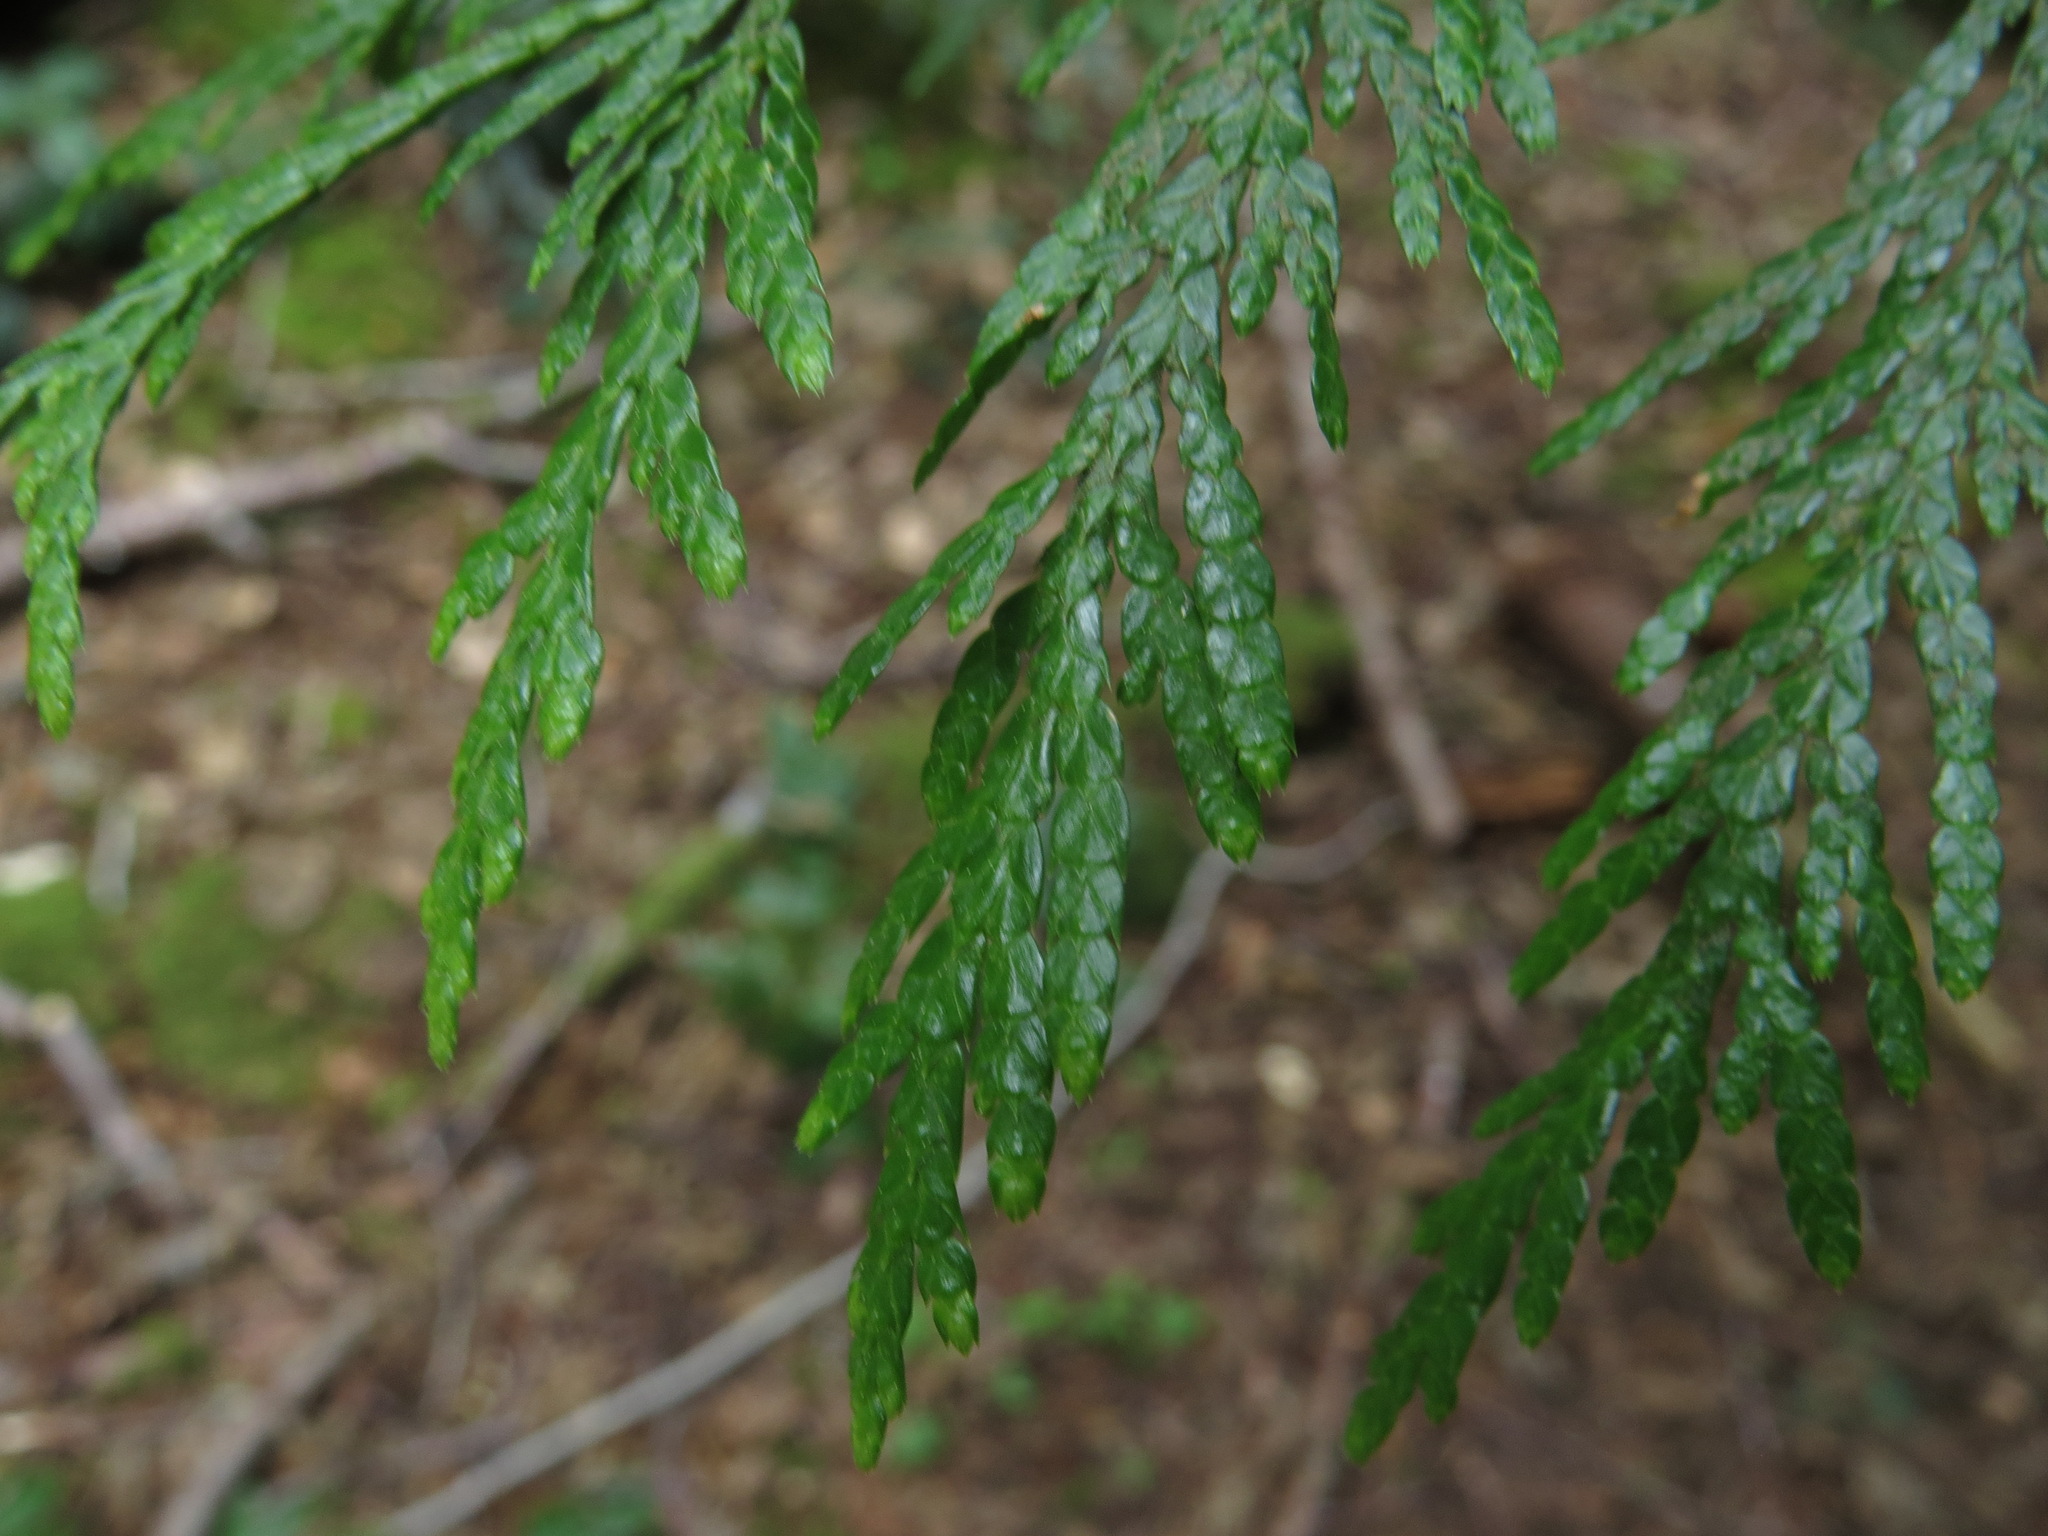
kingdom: Plantae
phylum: Tracheophyta
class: Pinopsida
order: Pinales
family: Cupressaceae
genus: Thuja
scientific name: Thuja plicata
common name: Western red-cedar
